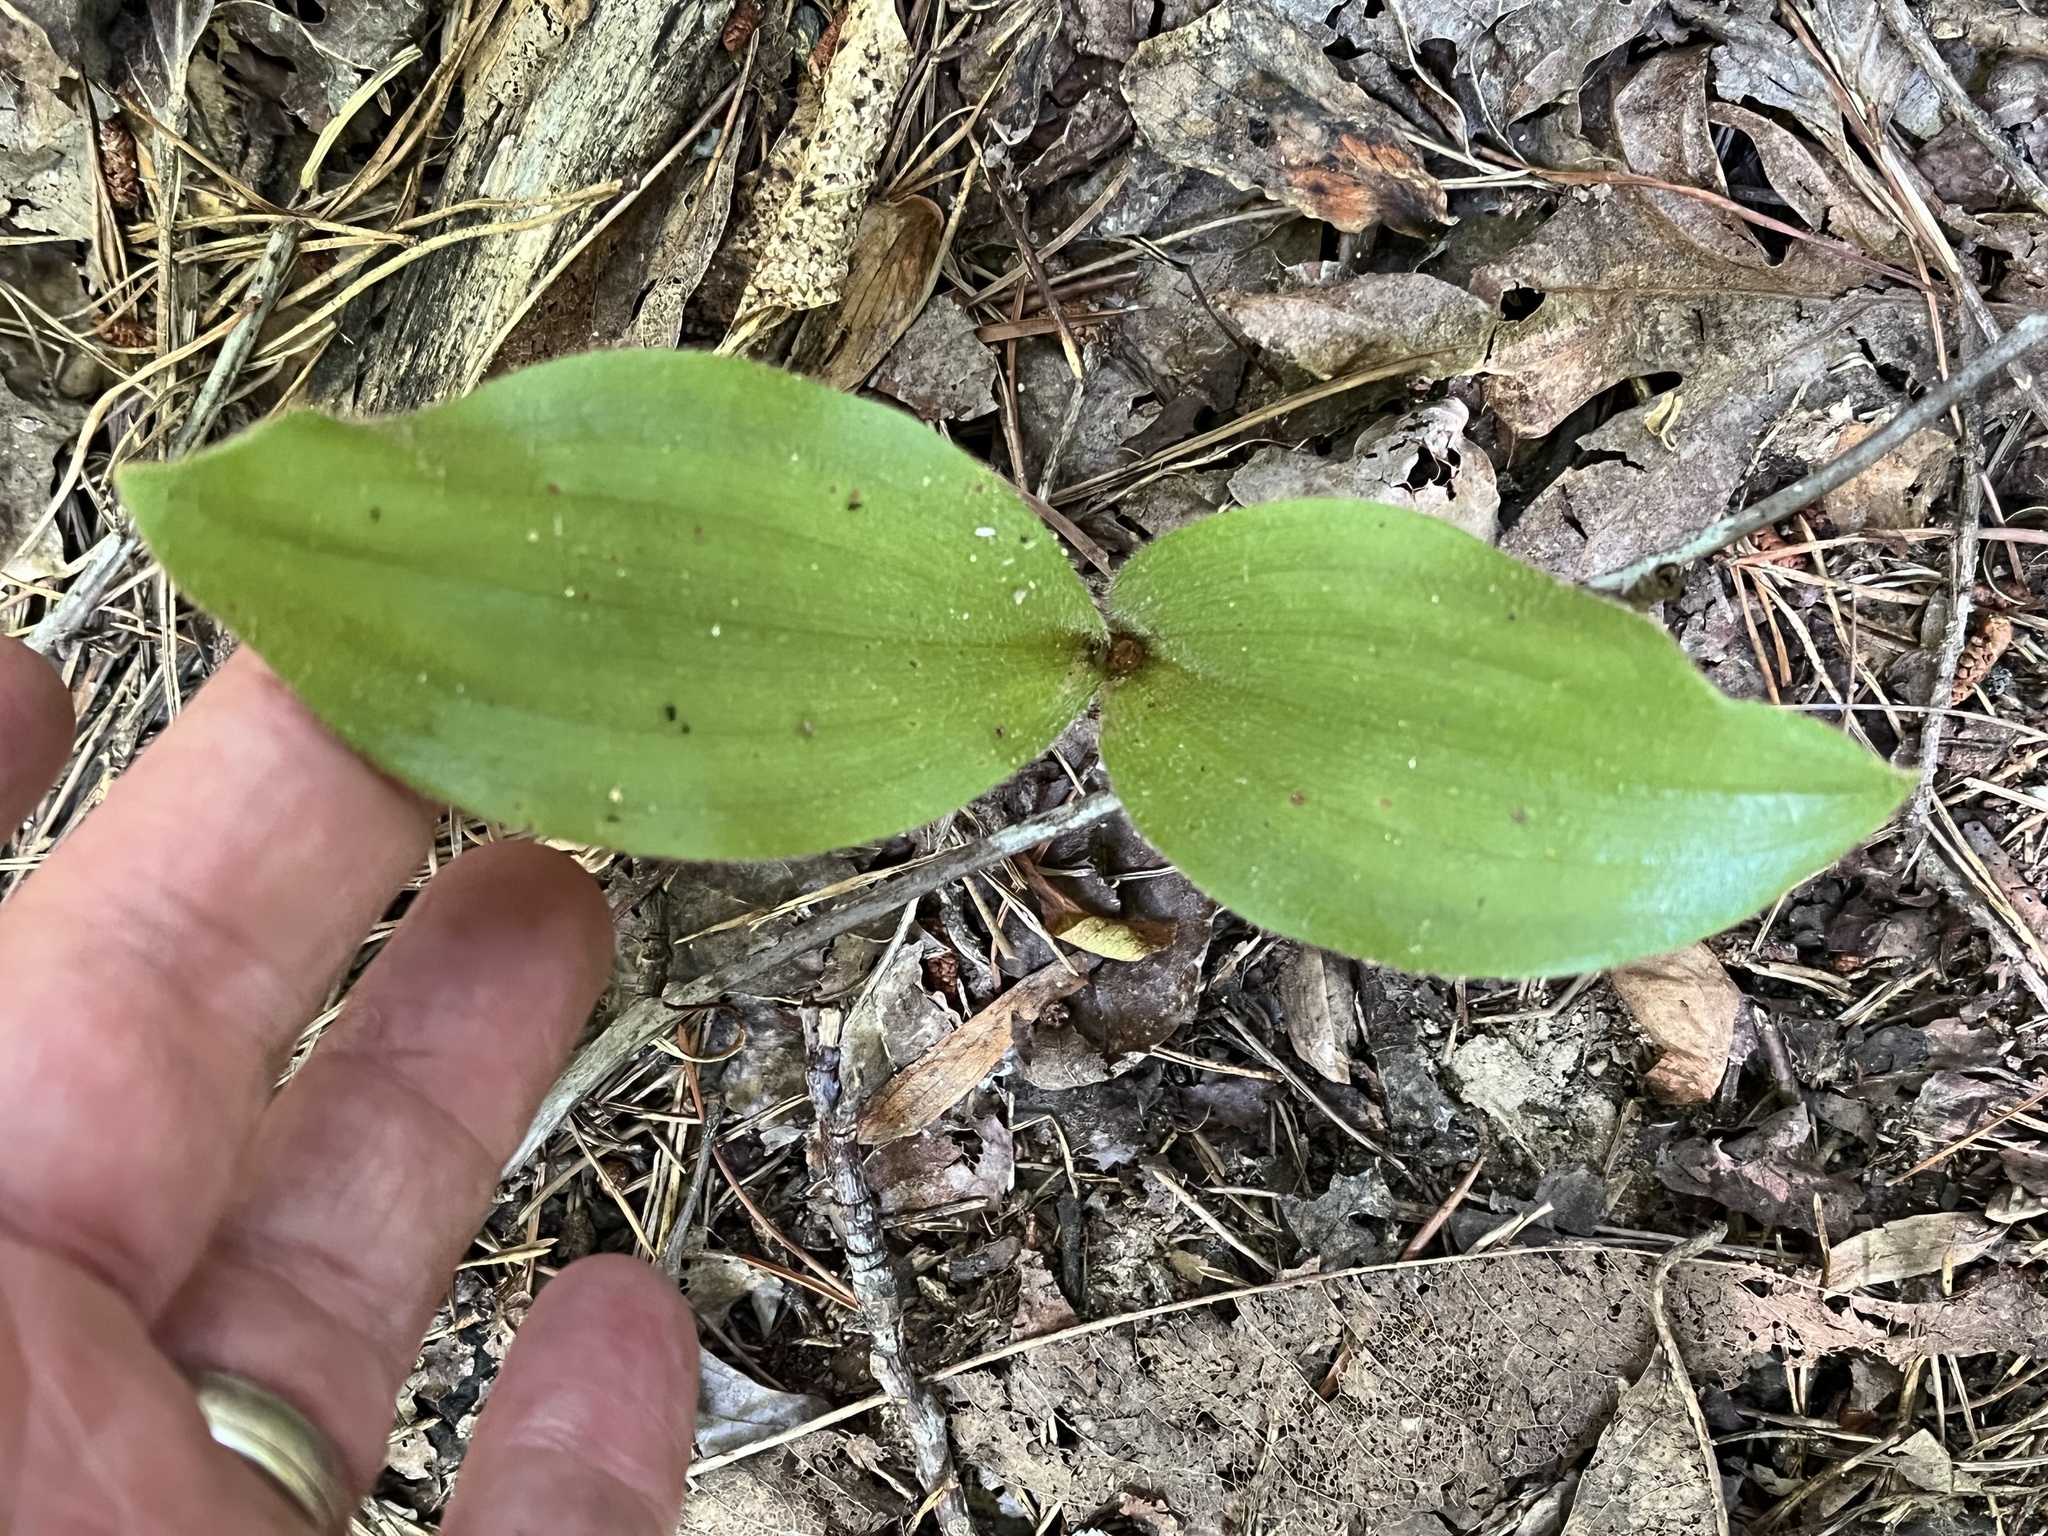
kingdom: Plantae
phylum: Tracheophyta
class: Liliopsida
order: Asparagales
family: Orchidaceae
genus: Cypripedium
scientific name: Cypripedium acaule
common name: Pink lady's-slipper
